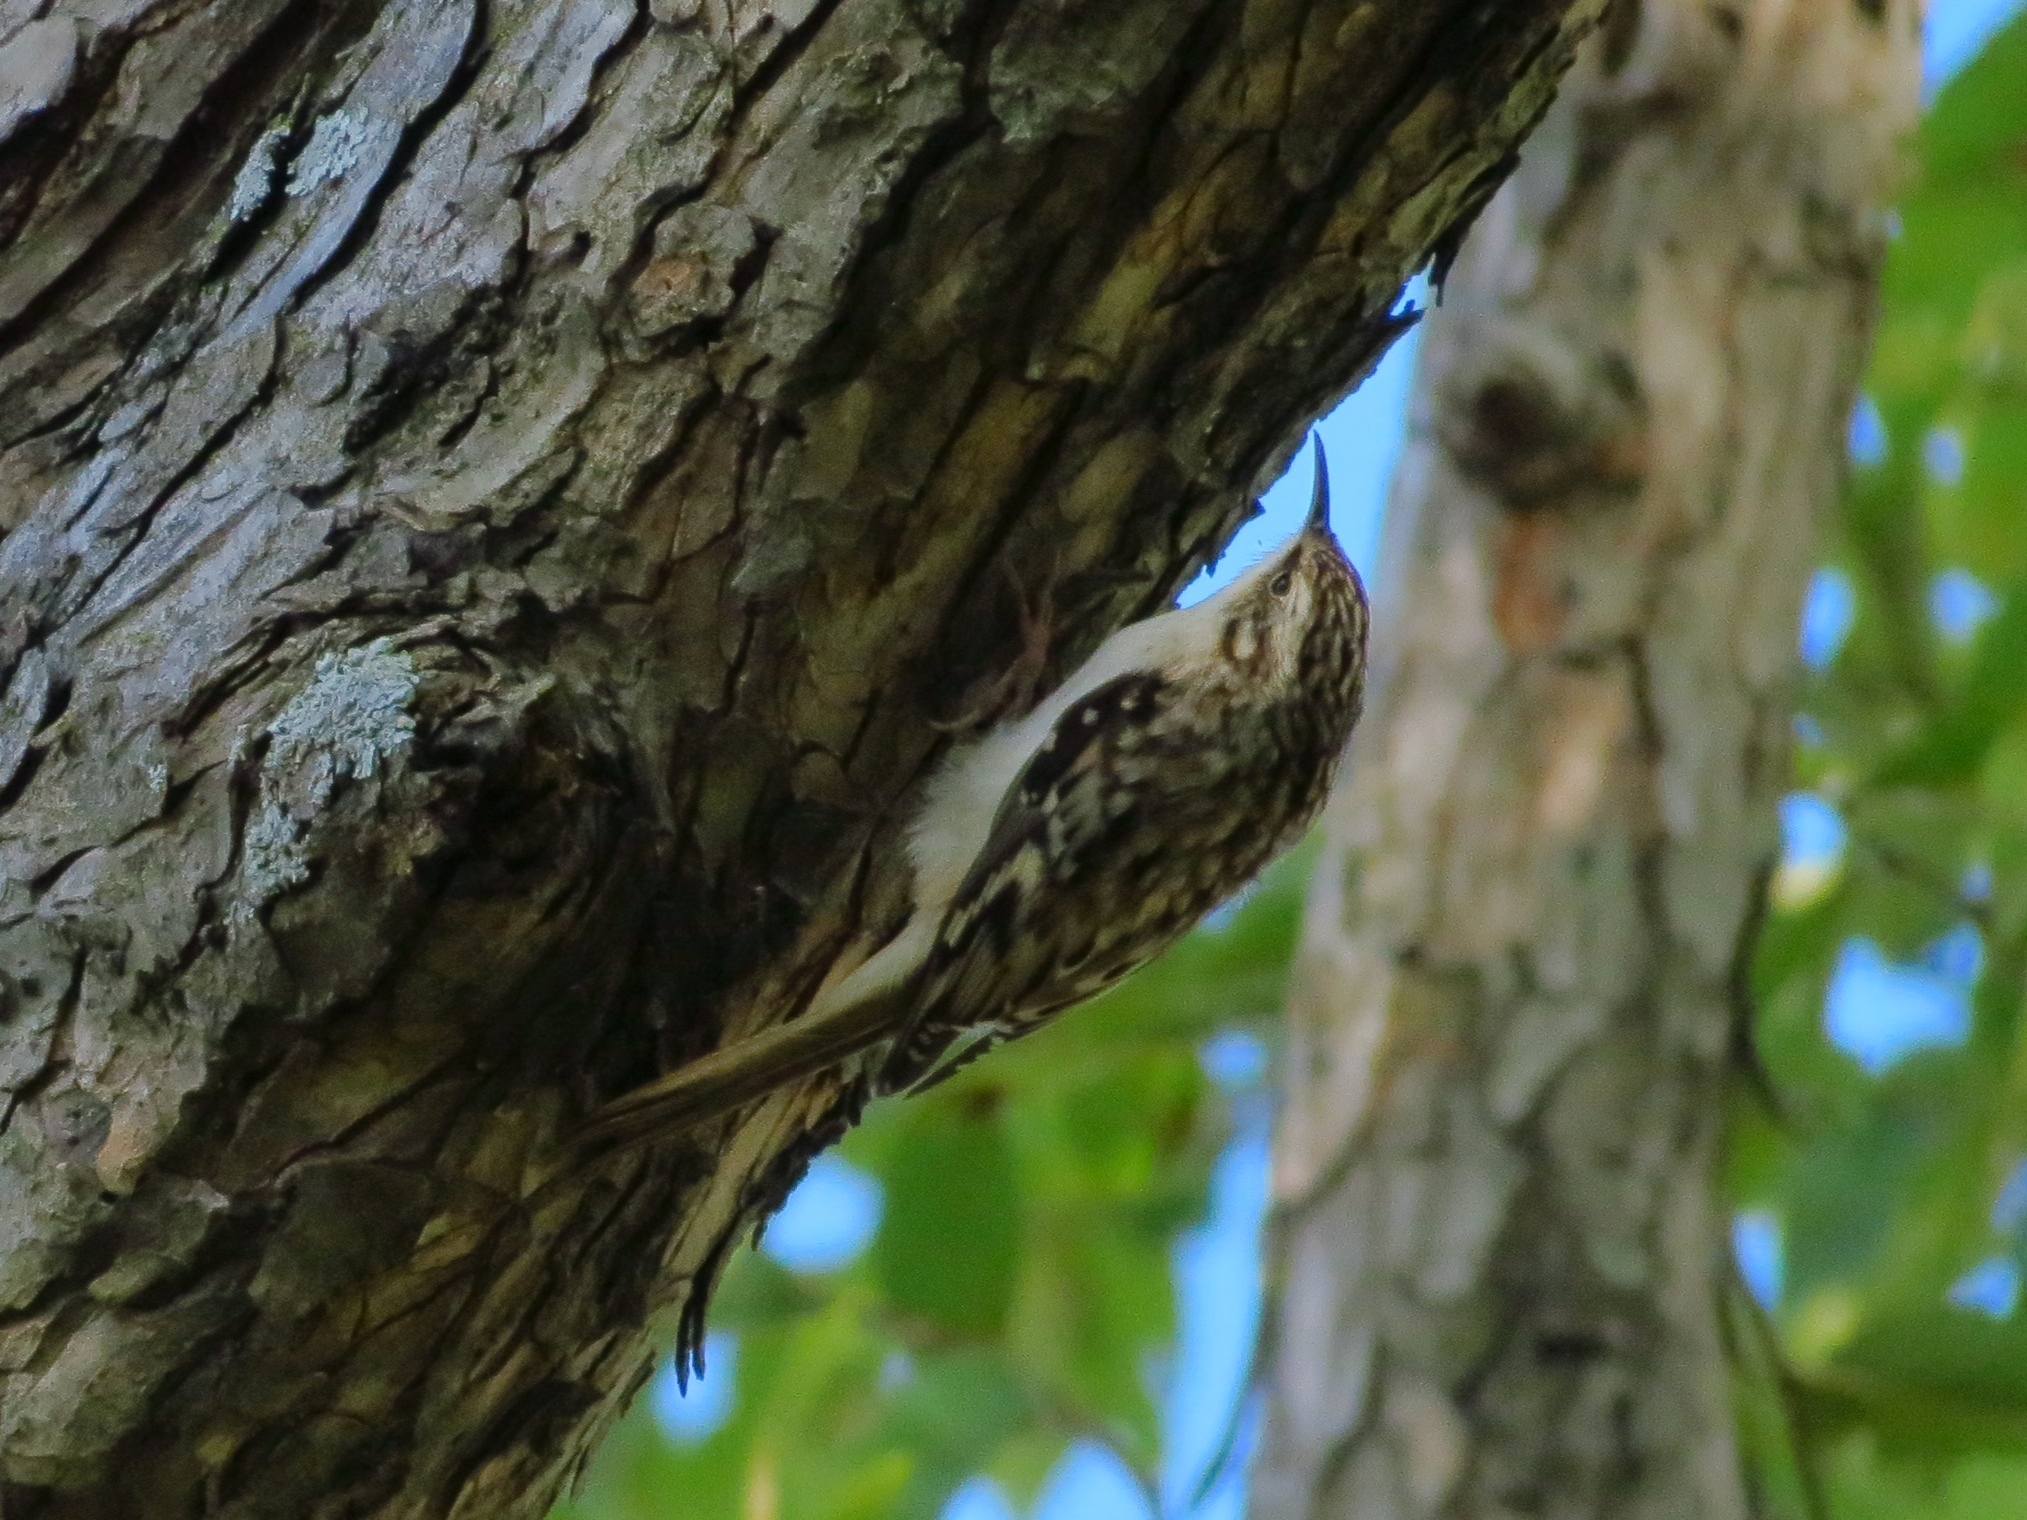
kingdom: Animalia
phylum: Chordata
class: Aves
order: Passeriformes
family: Certhiidae
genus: Certhia
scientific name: Certhia americana
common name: Brown creeper
